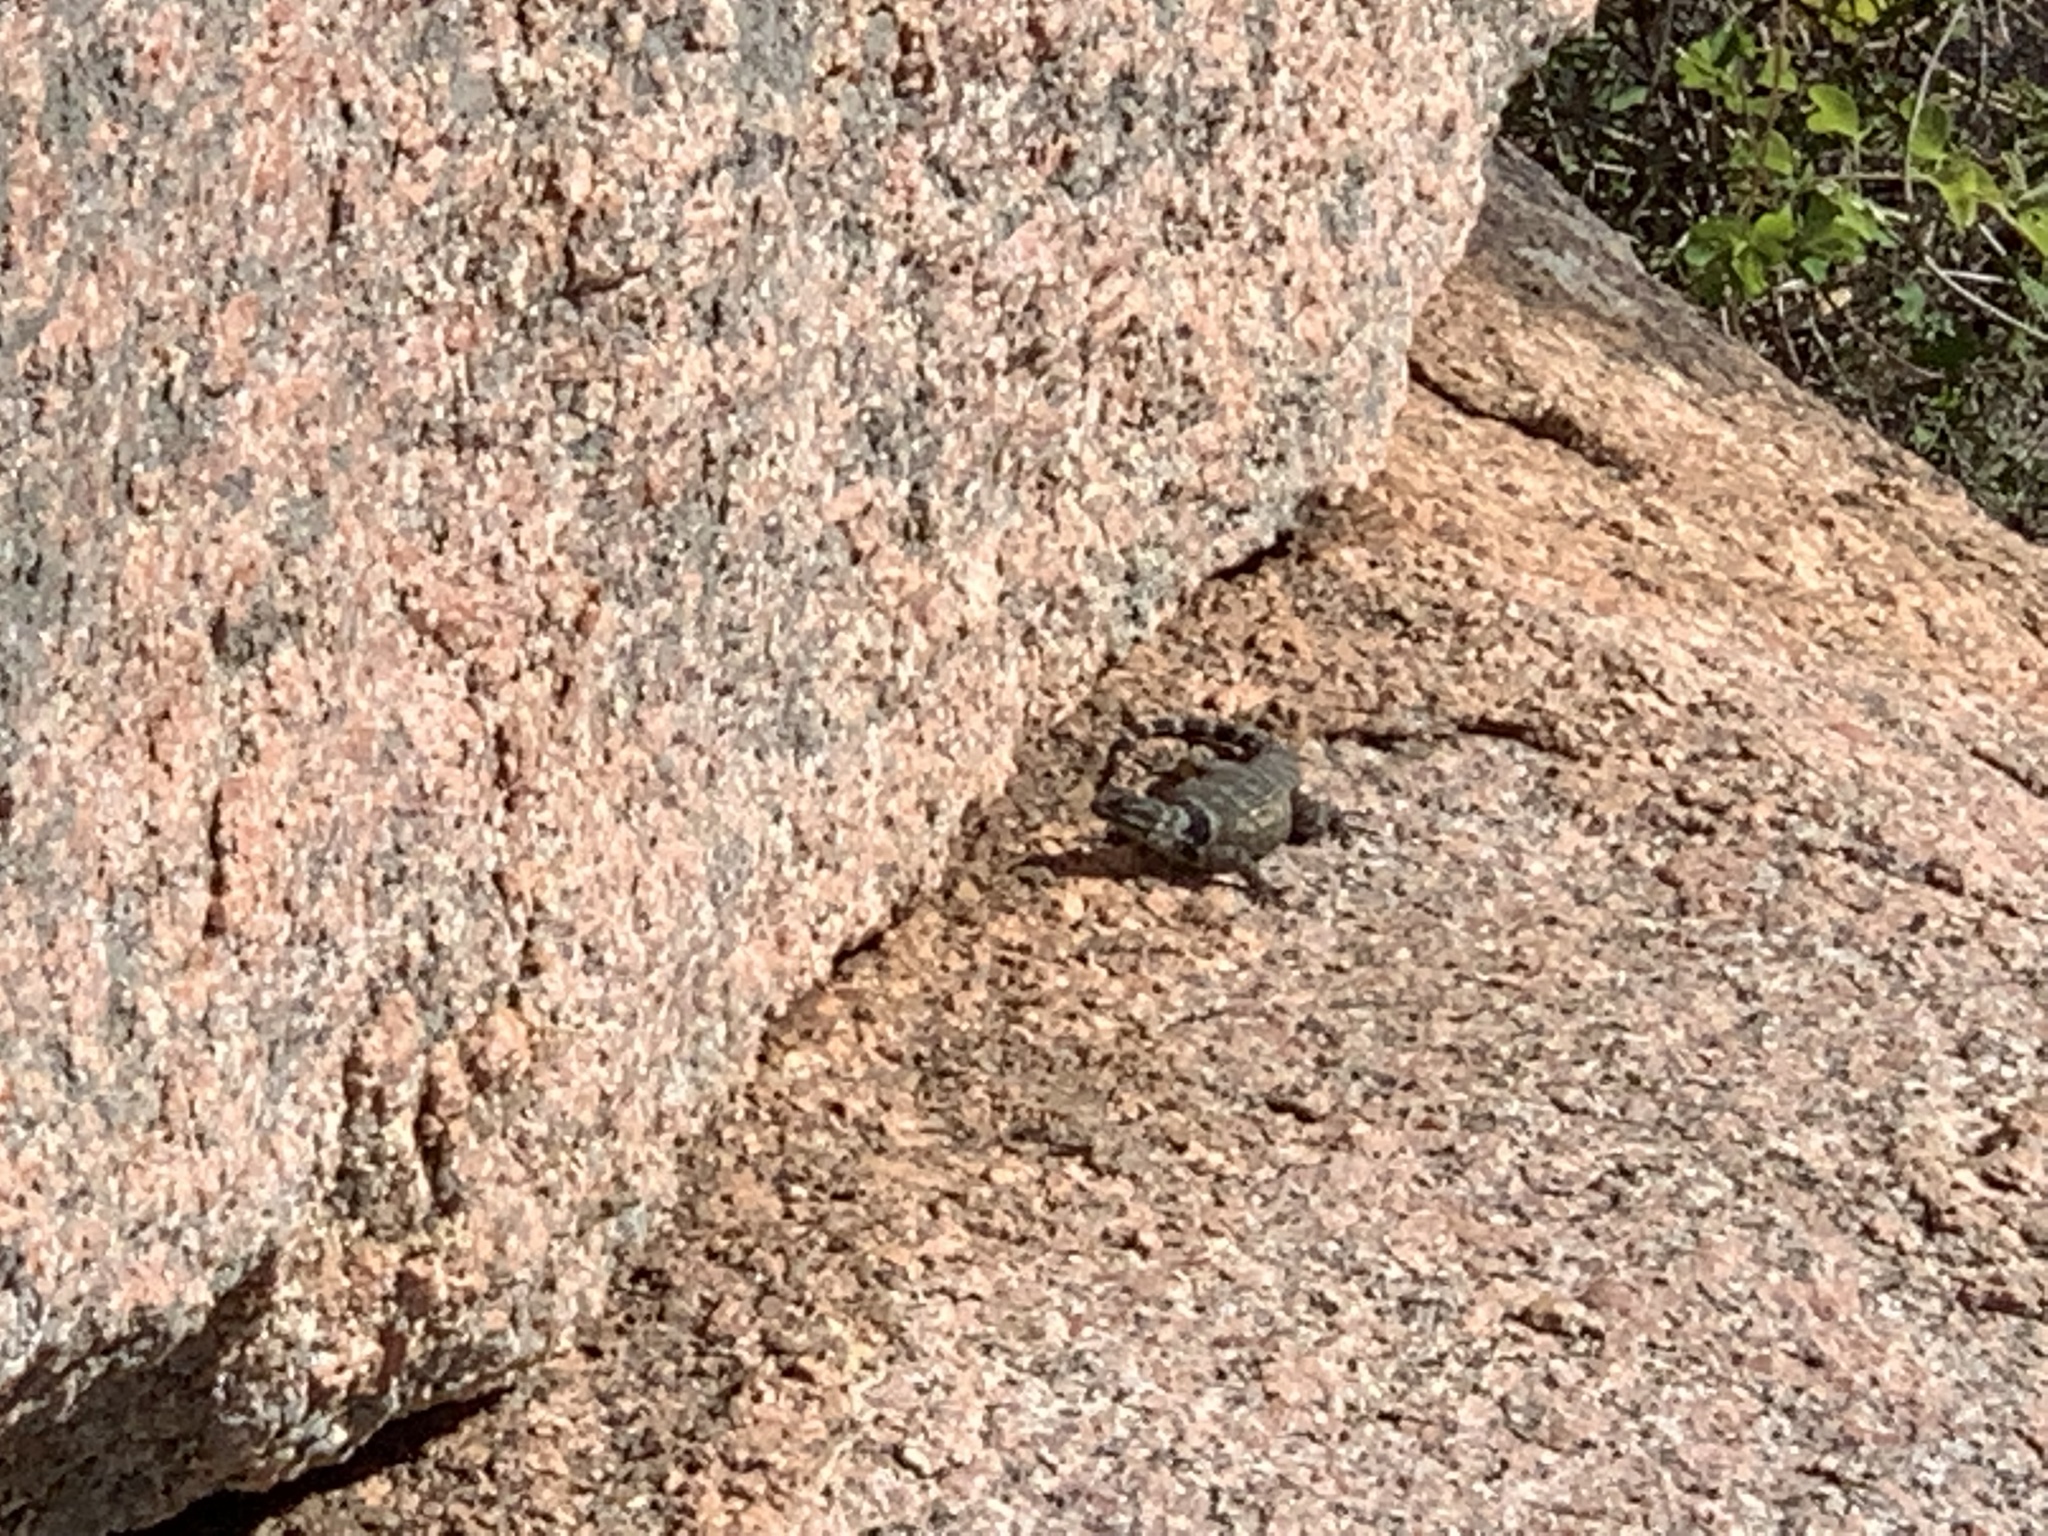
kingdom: Animalia
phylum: Chordata
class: Squamata
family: Phrynosomatidae
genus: Sceloporus
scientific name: Sceloporus poinsettii
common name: Crevice spiny lizard
